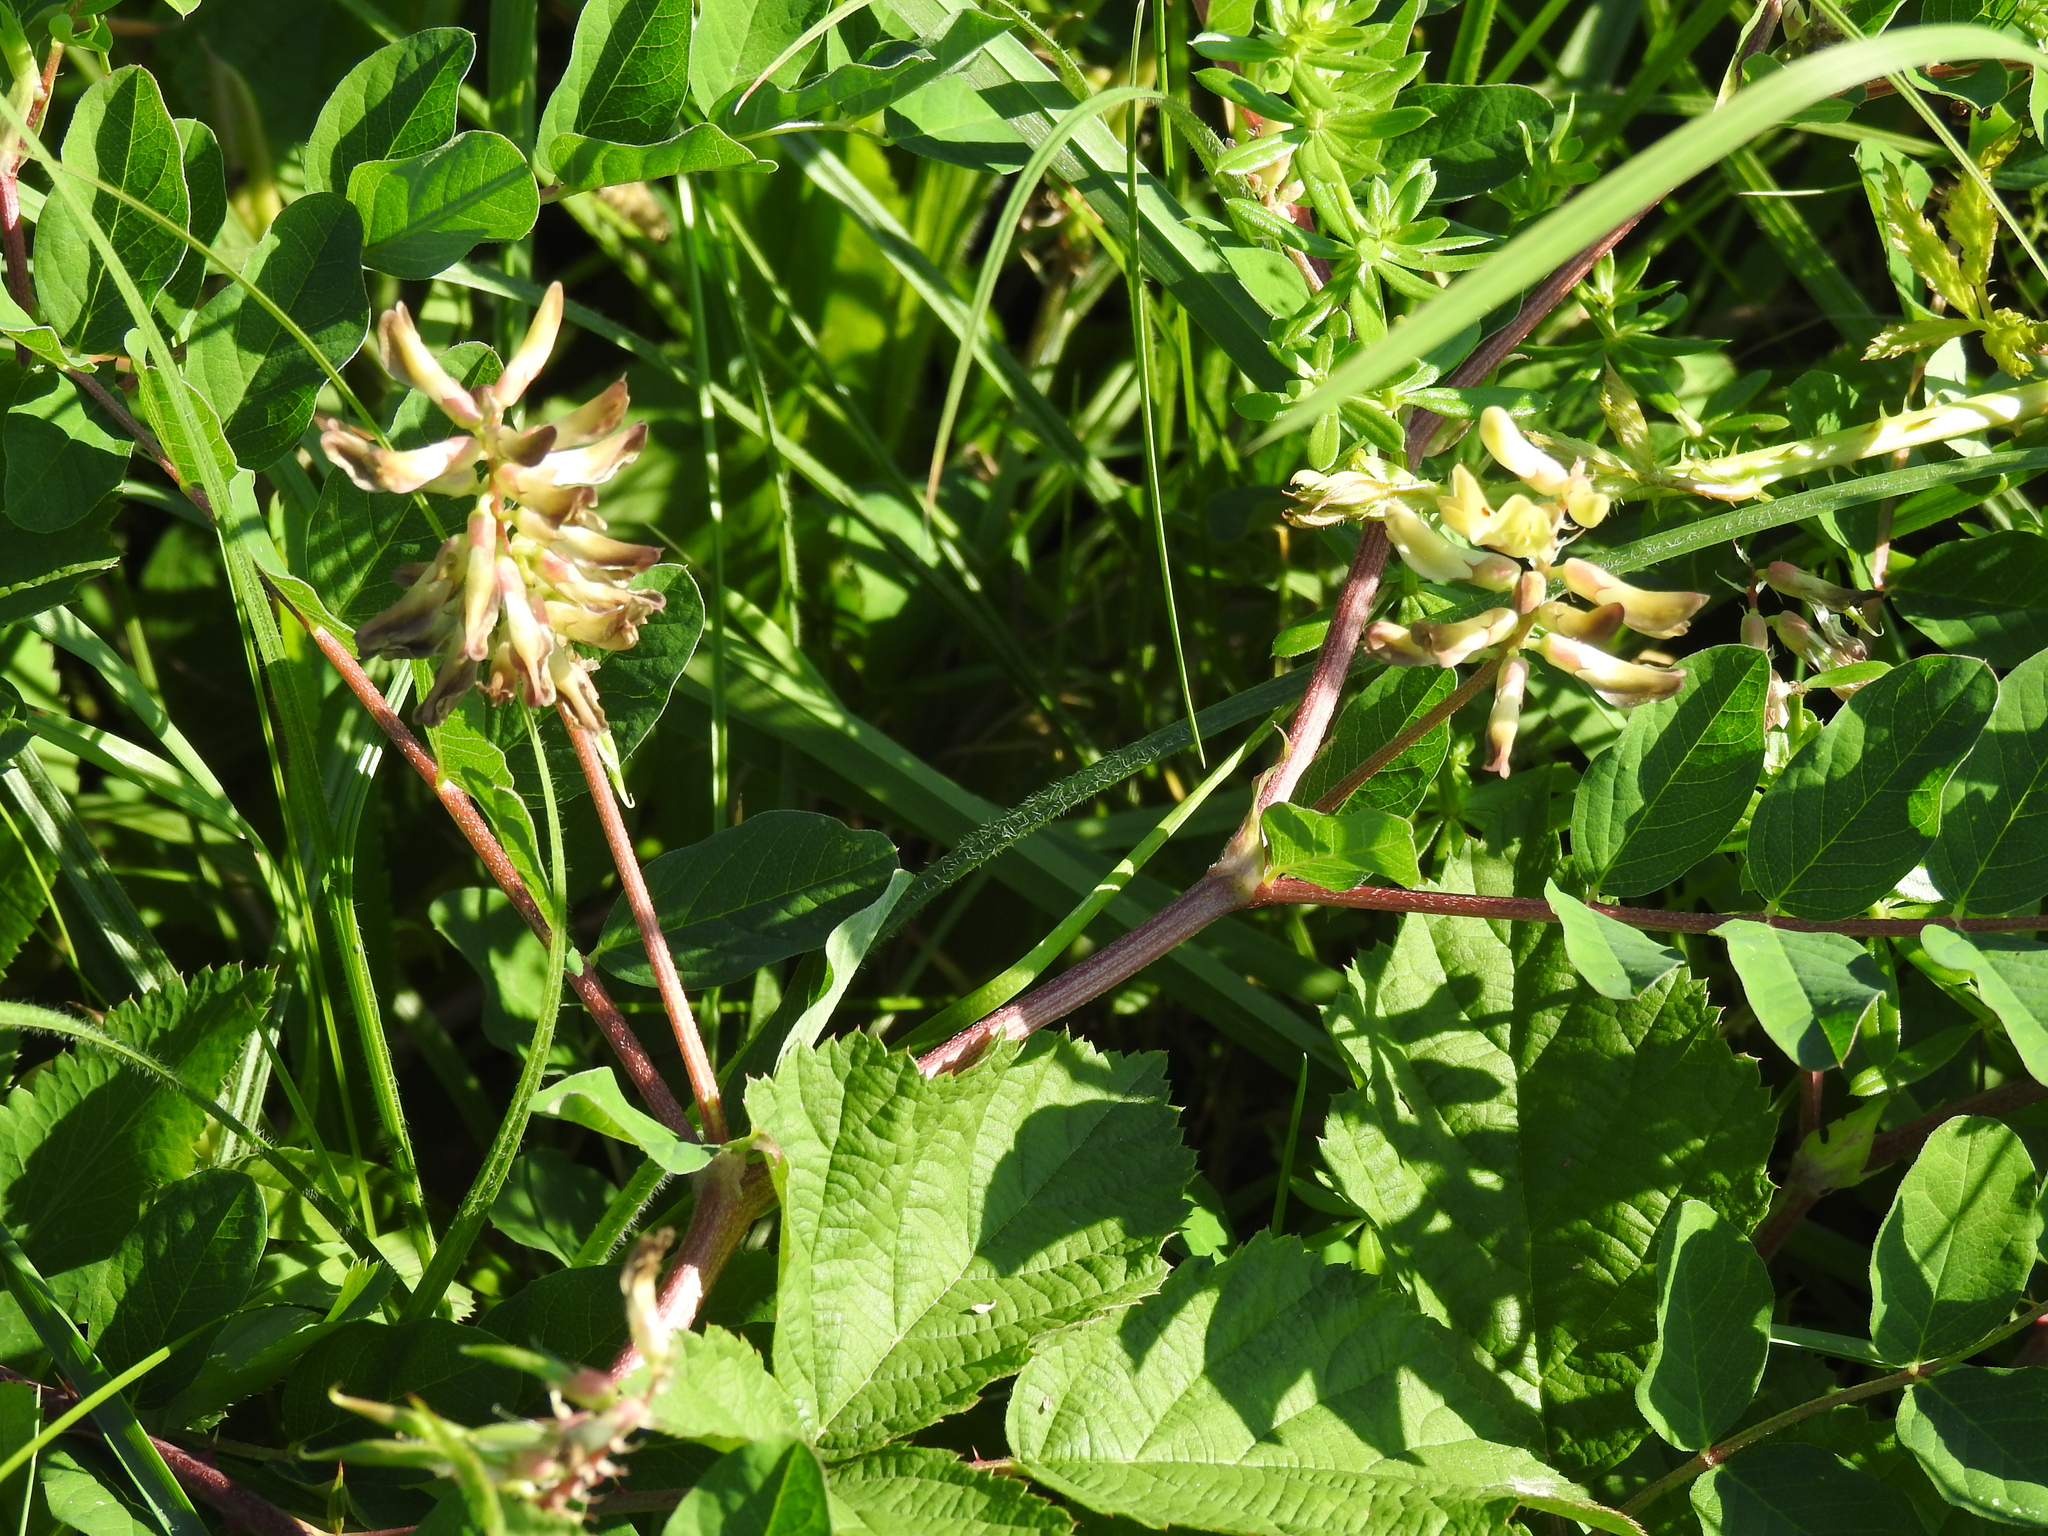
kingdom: Plantae
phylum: Tracheophyta
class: Magnoliopsida
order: Fabales
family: Fabaceae
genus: Astragalus
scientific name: Astragalus glycyphyllos
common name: Wild liquorice
